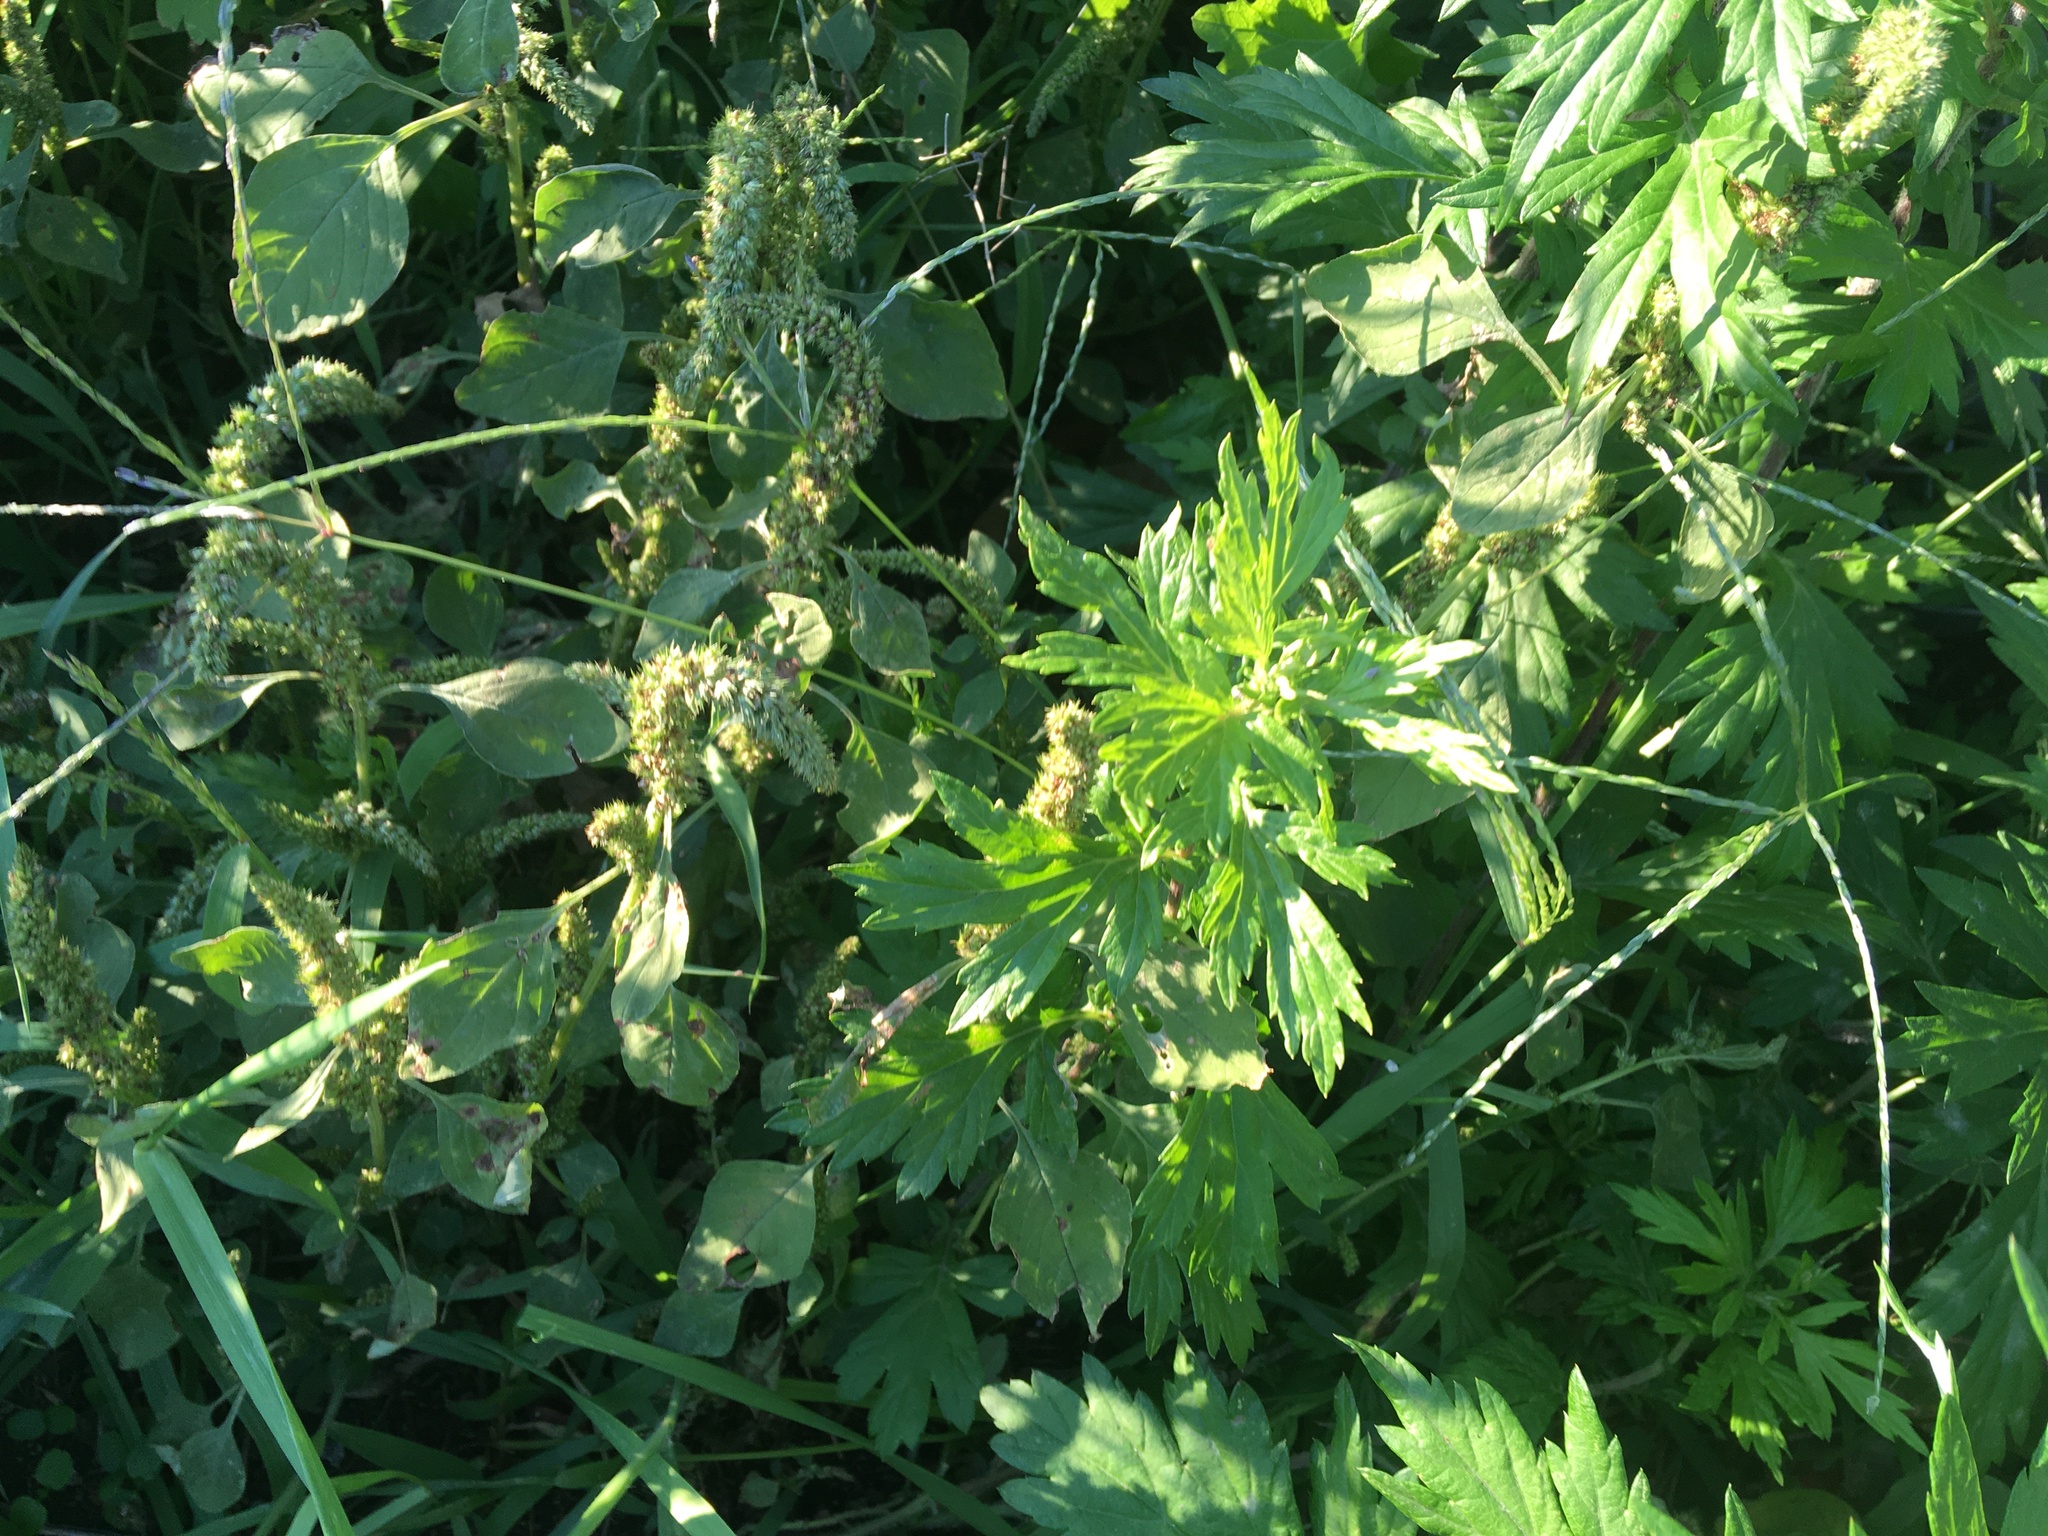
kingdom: Plantae
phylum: Tracheophyta
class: Magnoliopsida
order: Asterales
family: Asteraceae
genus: Artemisia
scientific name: Artemisia vulgaris
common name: Mugwort
